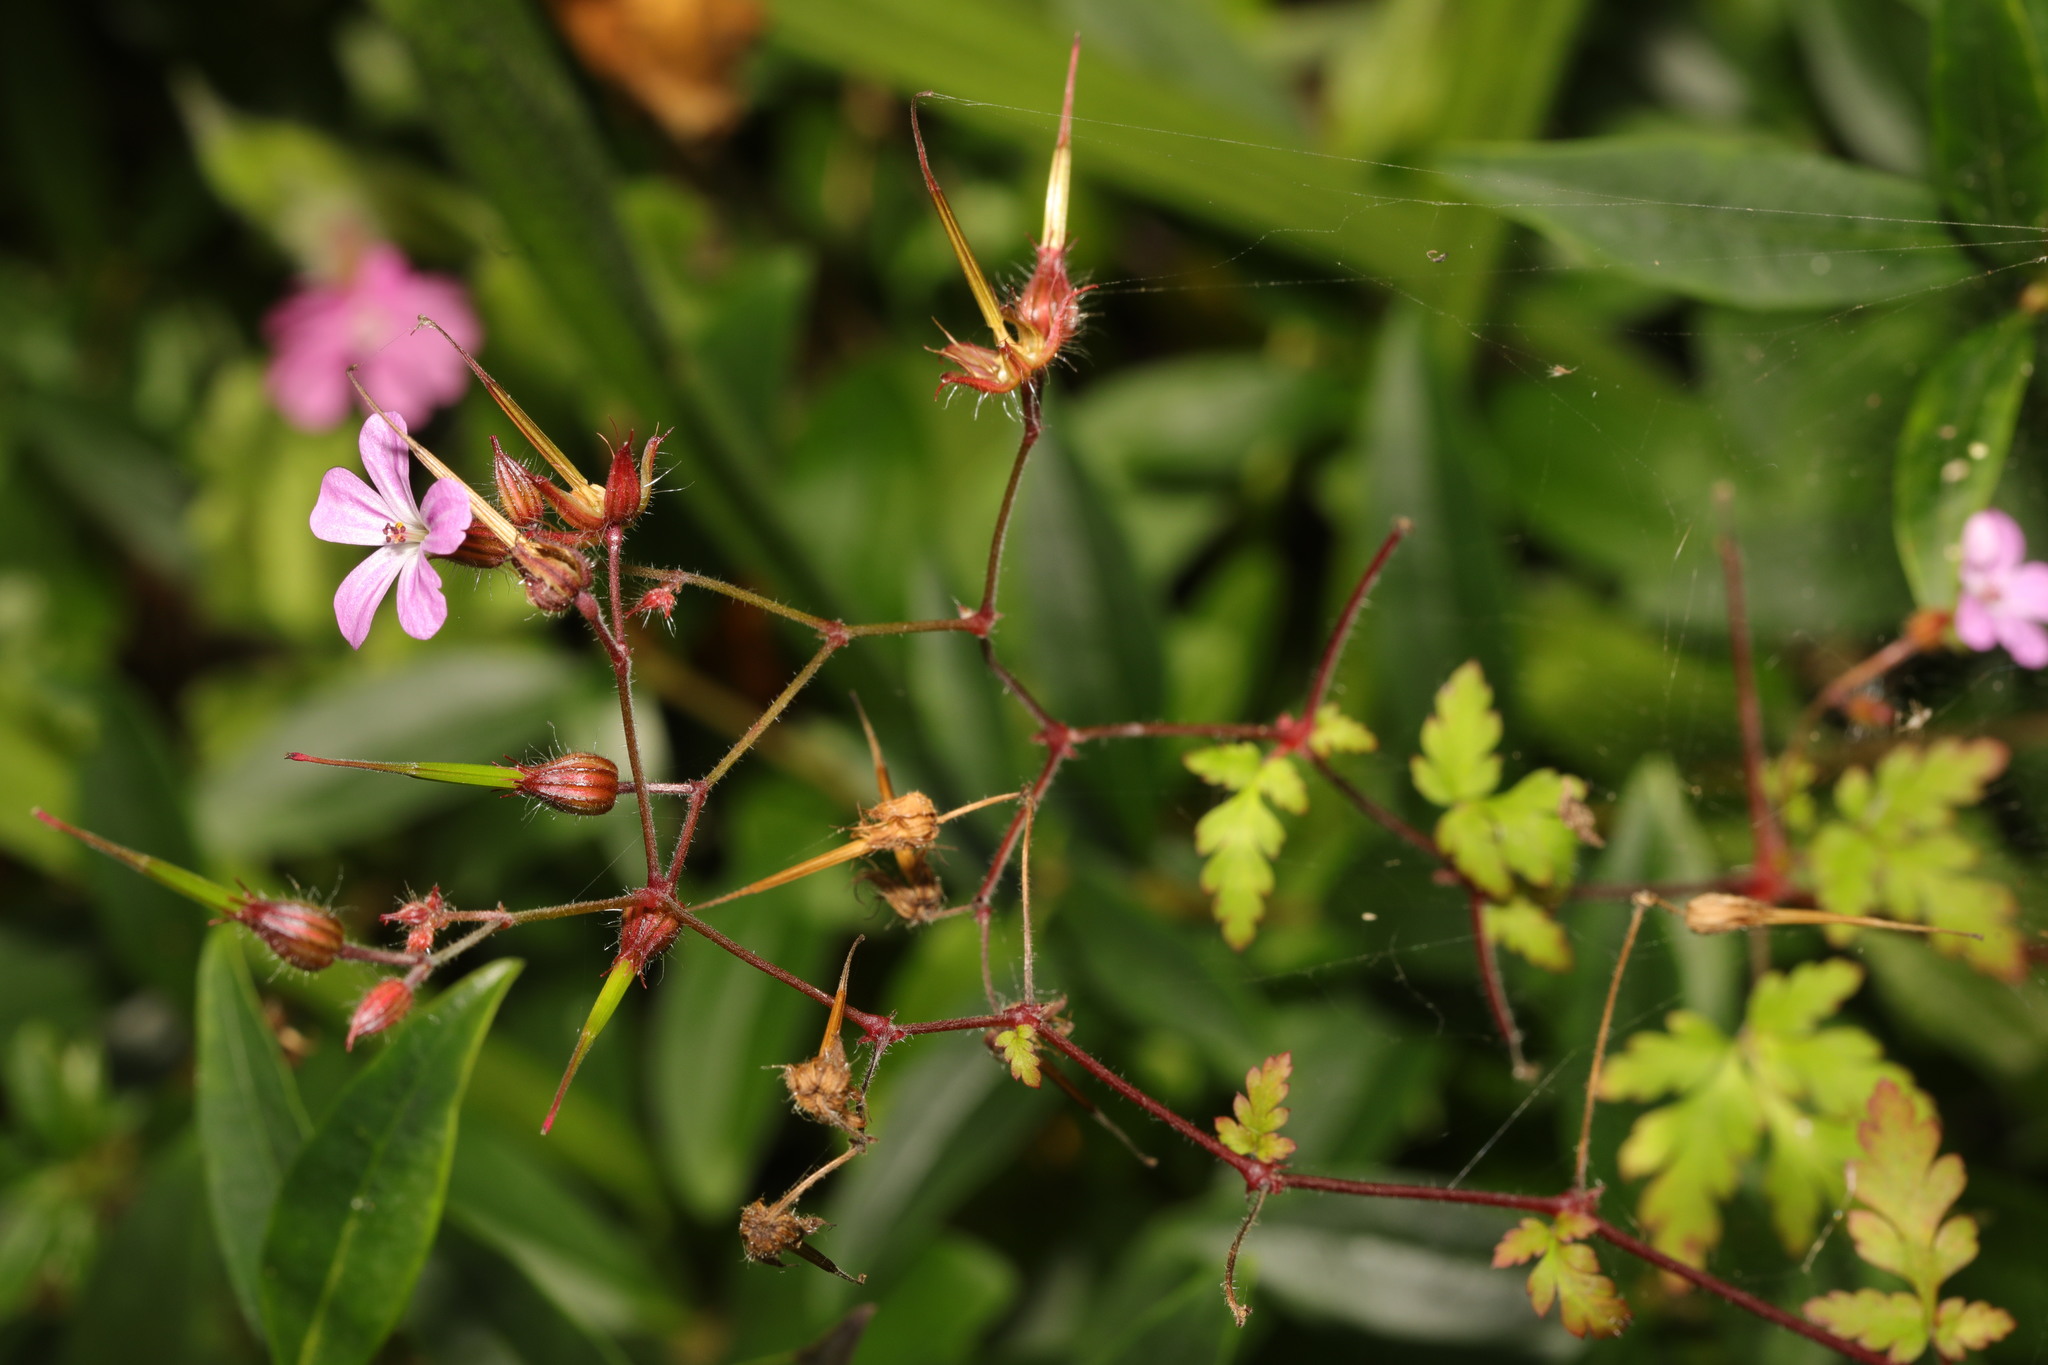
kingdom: Plantae
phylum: Tracheophyta
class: Magnoliopsida
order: Geraniales
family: Geraniaceae
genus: Geranium
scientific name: Geranium robertianum
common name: Herb-robert
